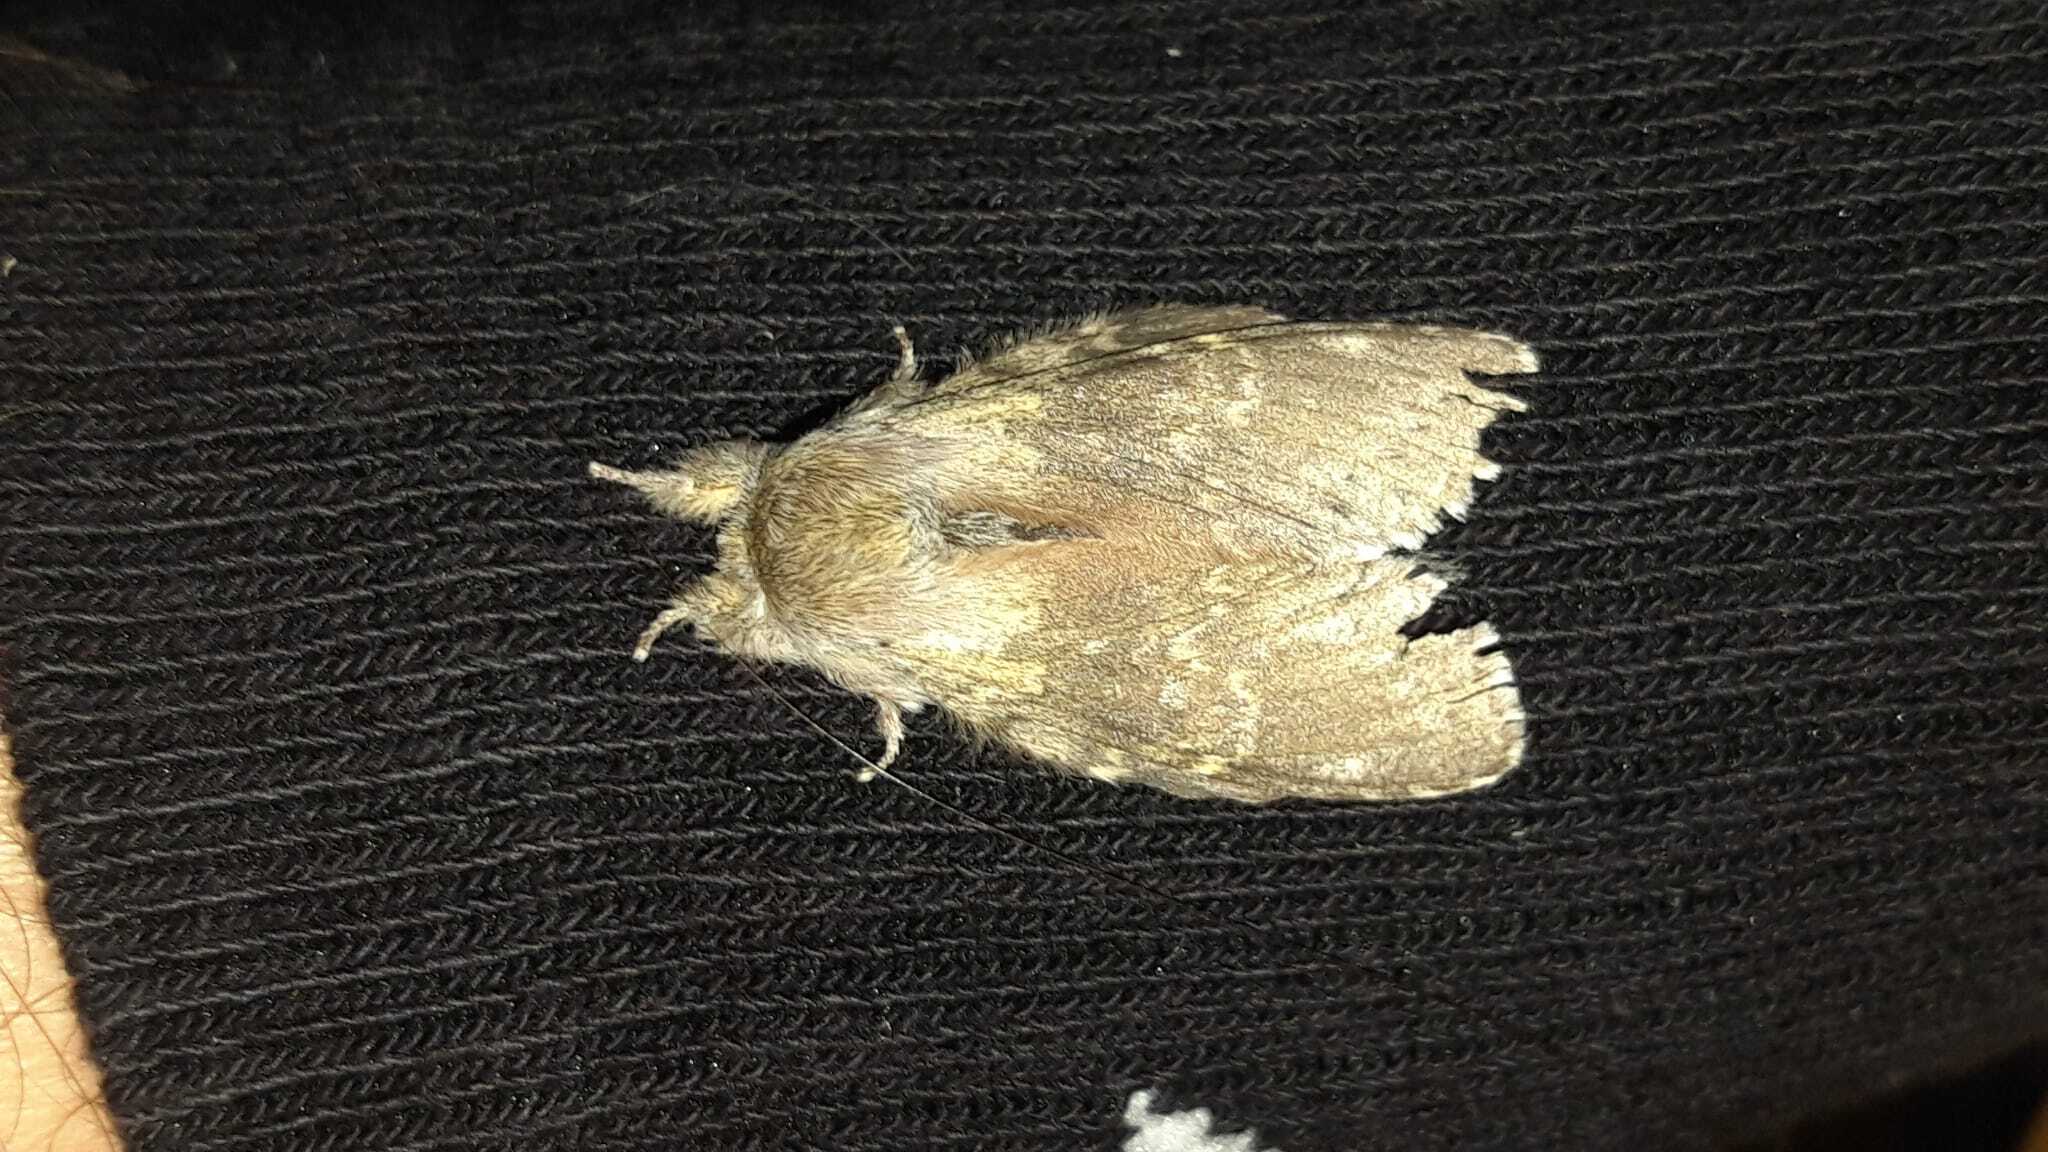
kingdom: Animalia
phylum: Arthropoda
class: Insecta
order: Lepidoptera
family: Notodontidae
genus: Stauropus
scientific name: Stauropus fagi
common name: Lobster moth
